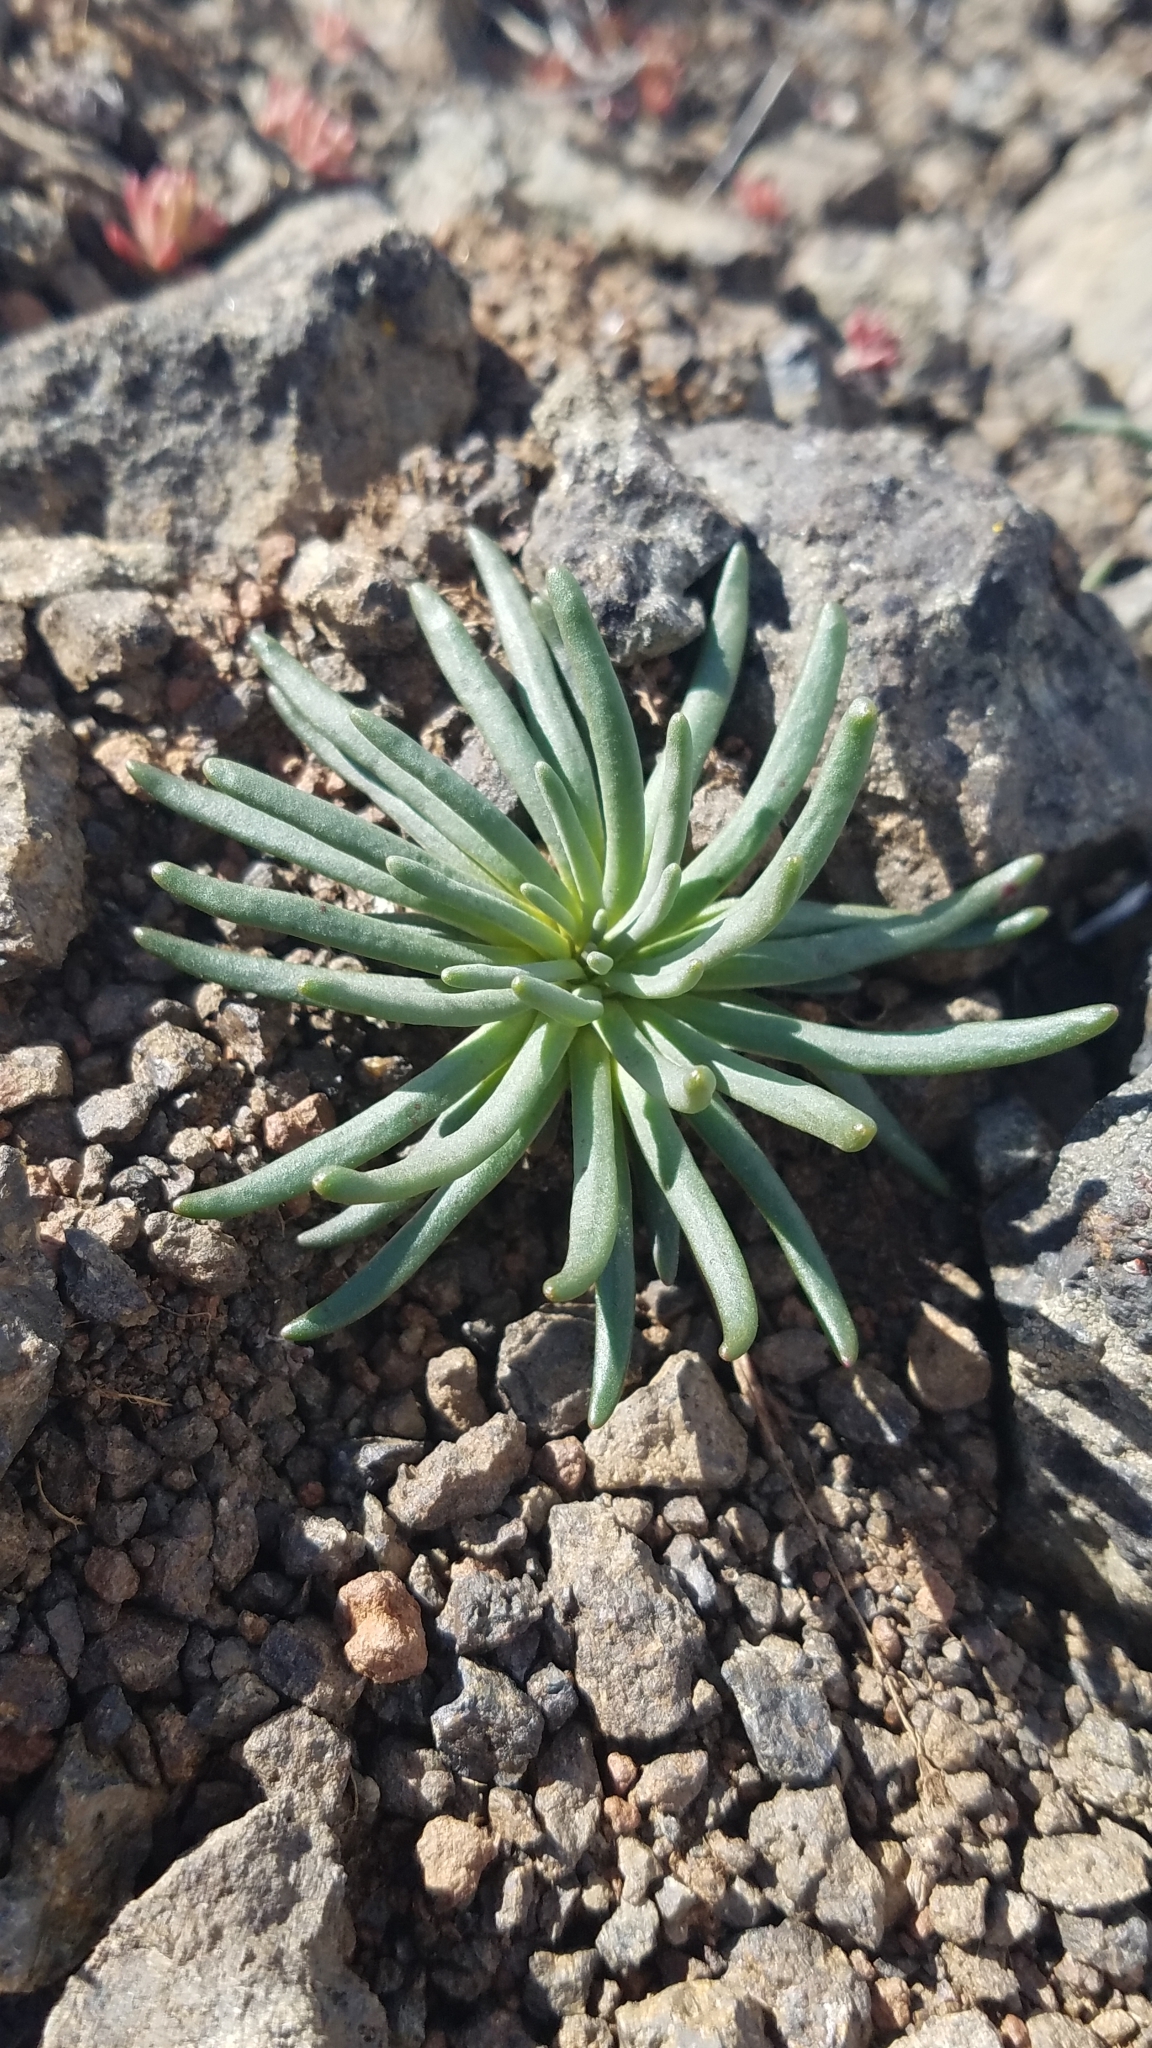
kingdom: Plantae
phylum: Tracheophyta
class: Magnoliopsida
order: Caryophyllales
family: Montiaceae
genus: Lewisia
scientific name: Lewisia rediviva
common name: Bitter-root
